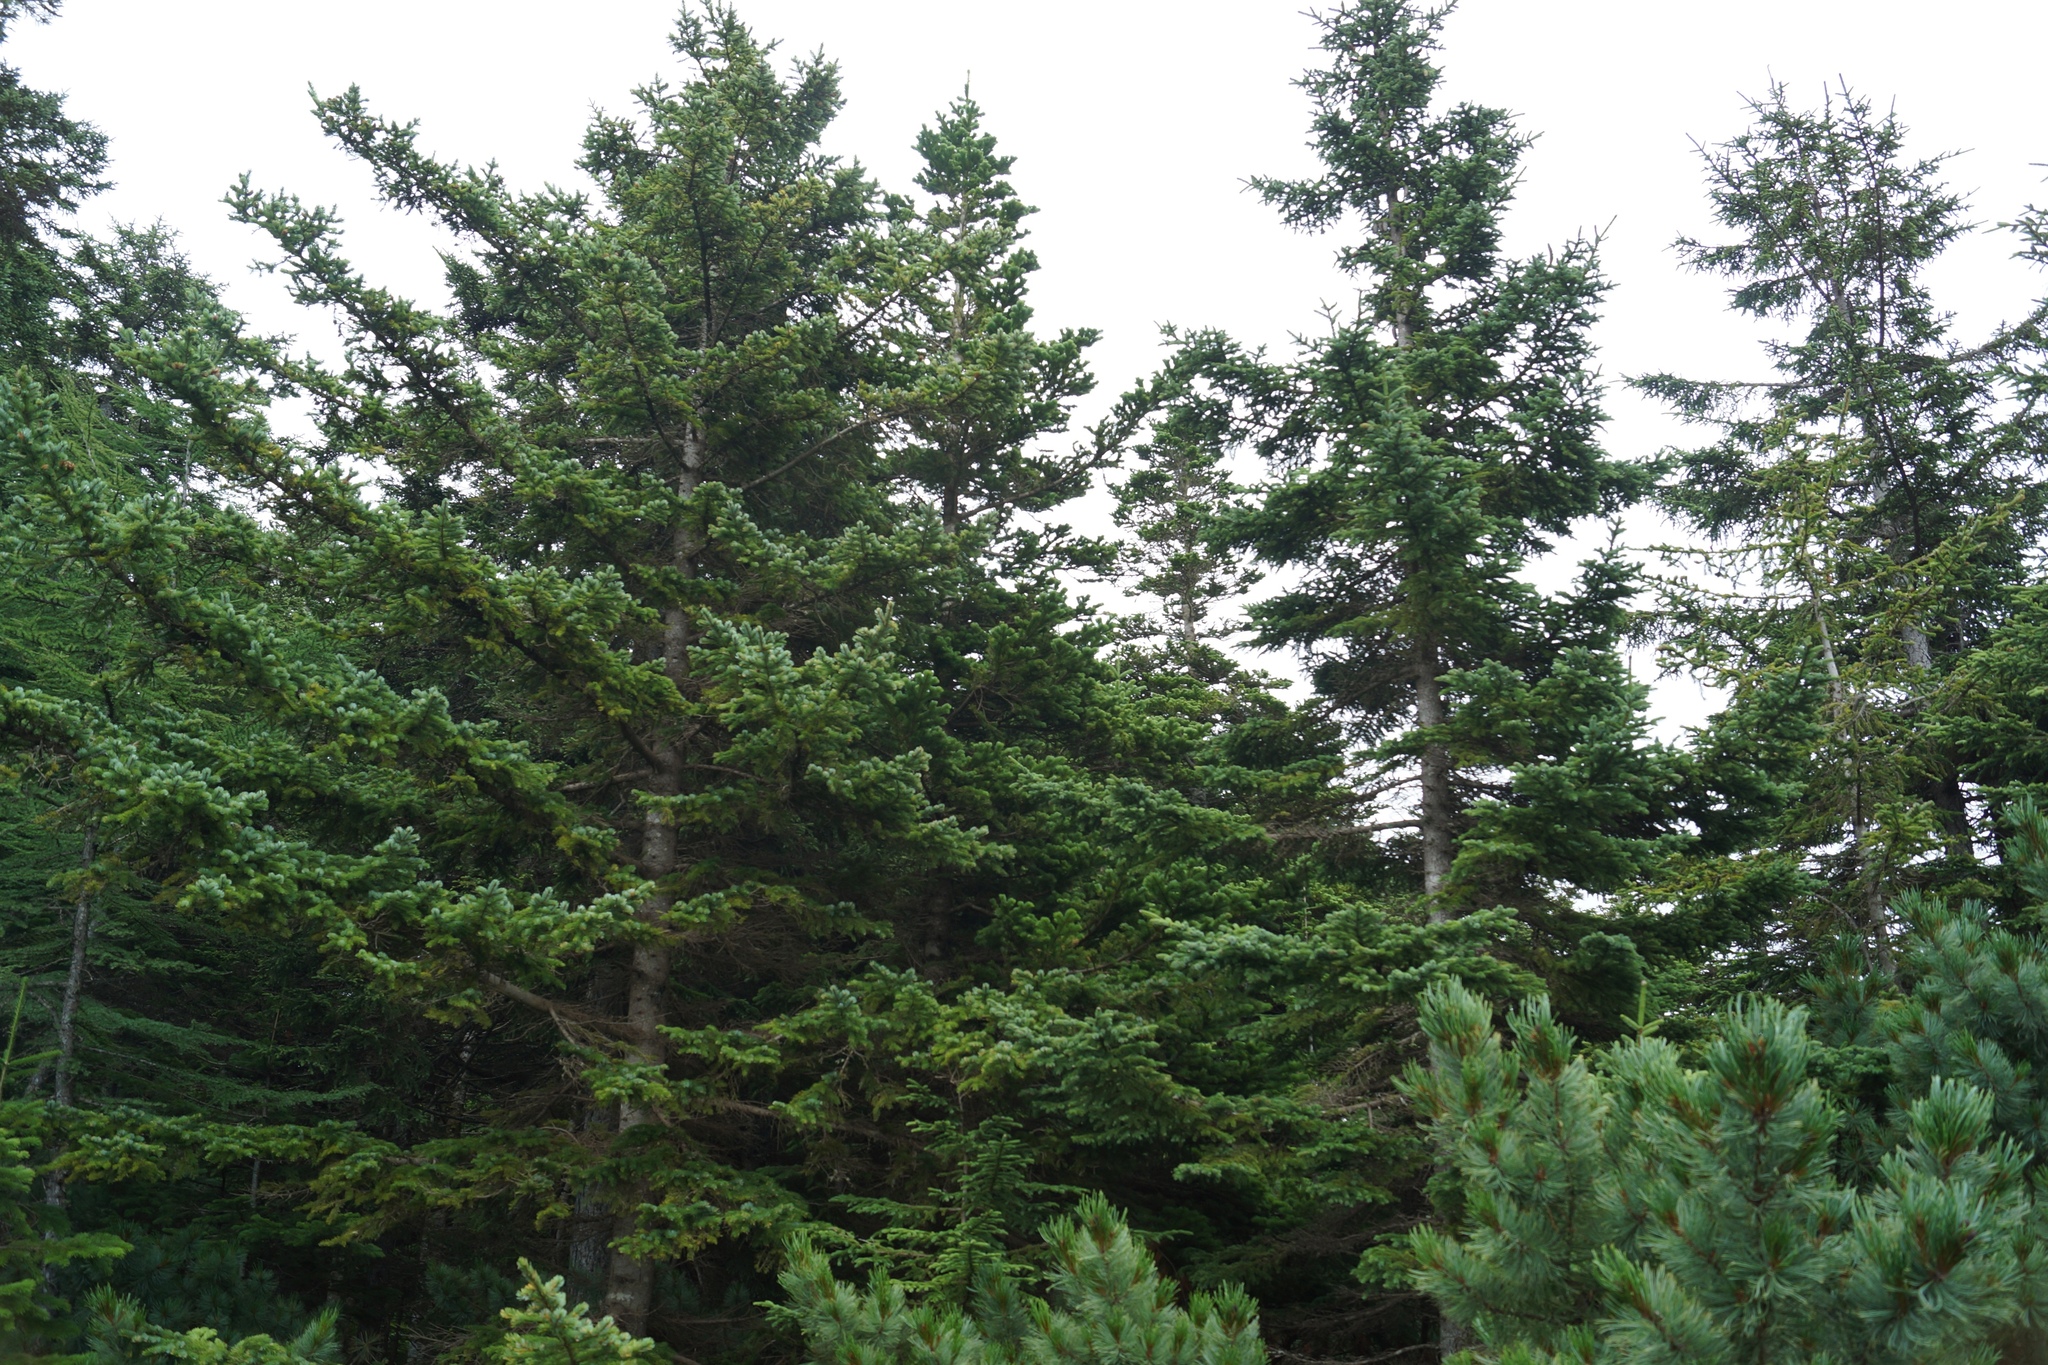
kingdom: Plantae
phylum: Tracheophyta
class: Pinopsida
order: Pinales
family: Pinaceae
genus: Abies
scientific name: Abies sachalinensis
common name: Sakhalin fir
